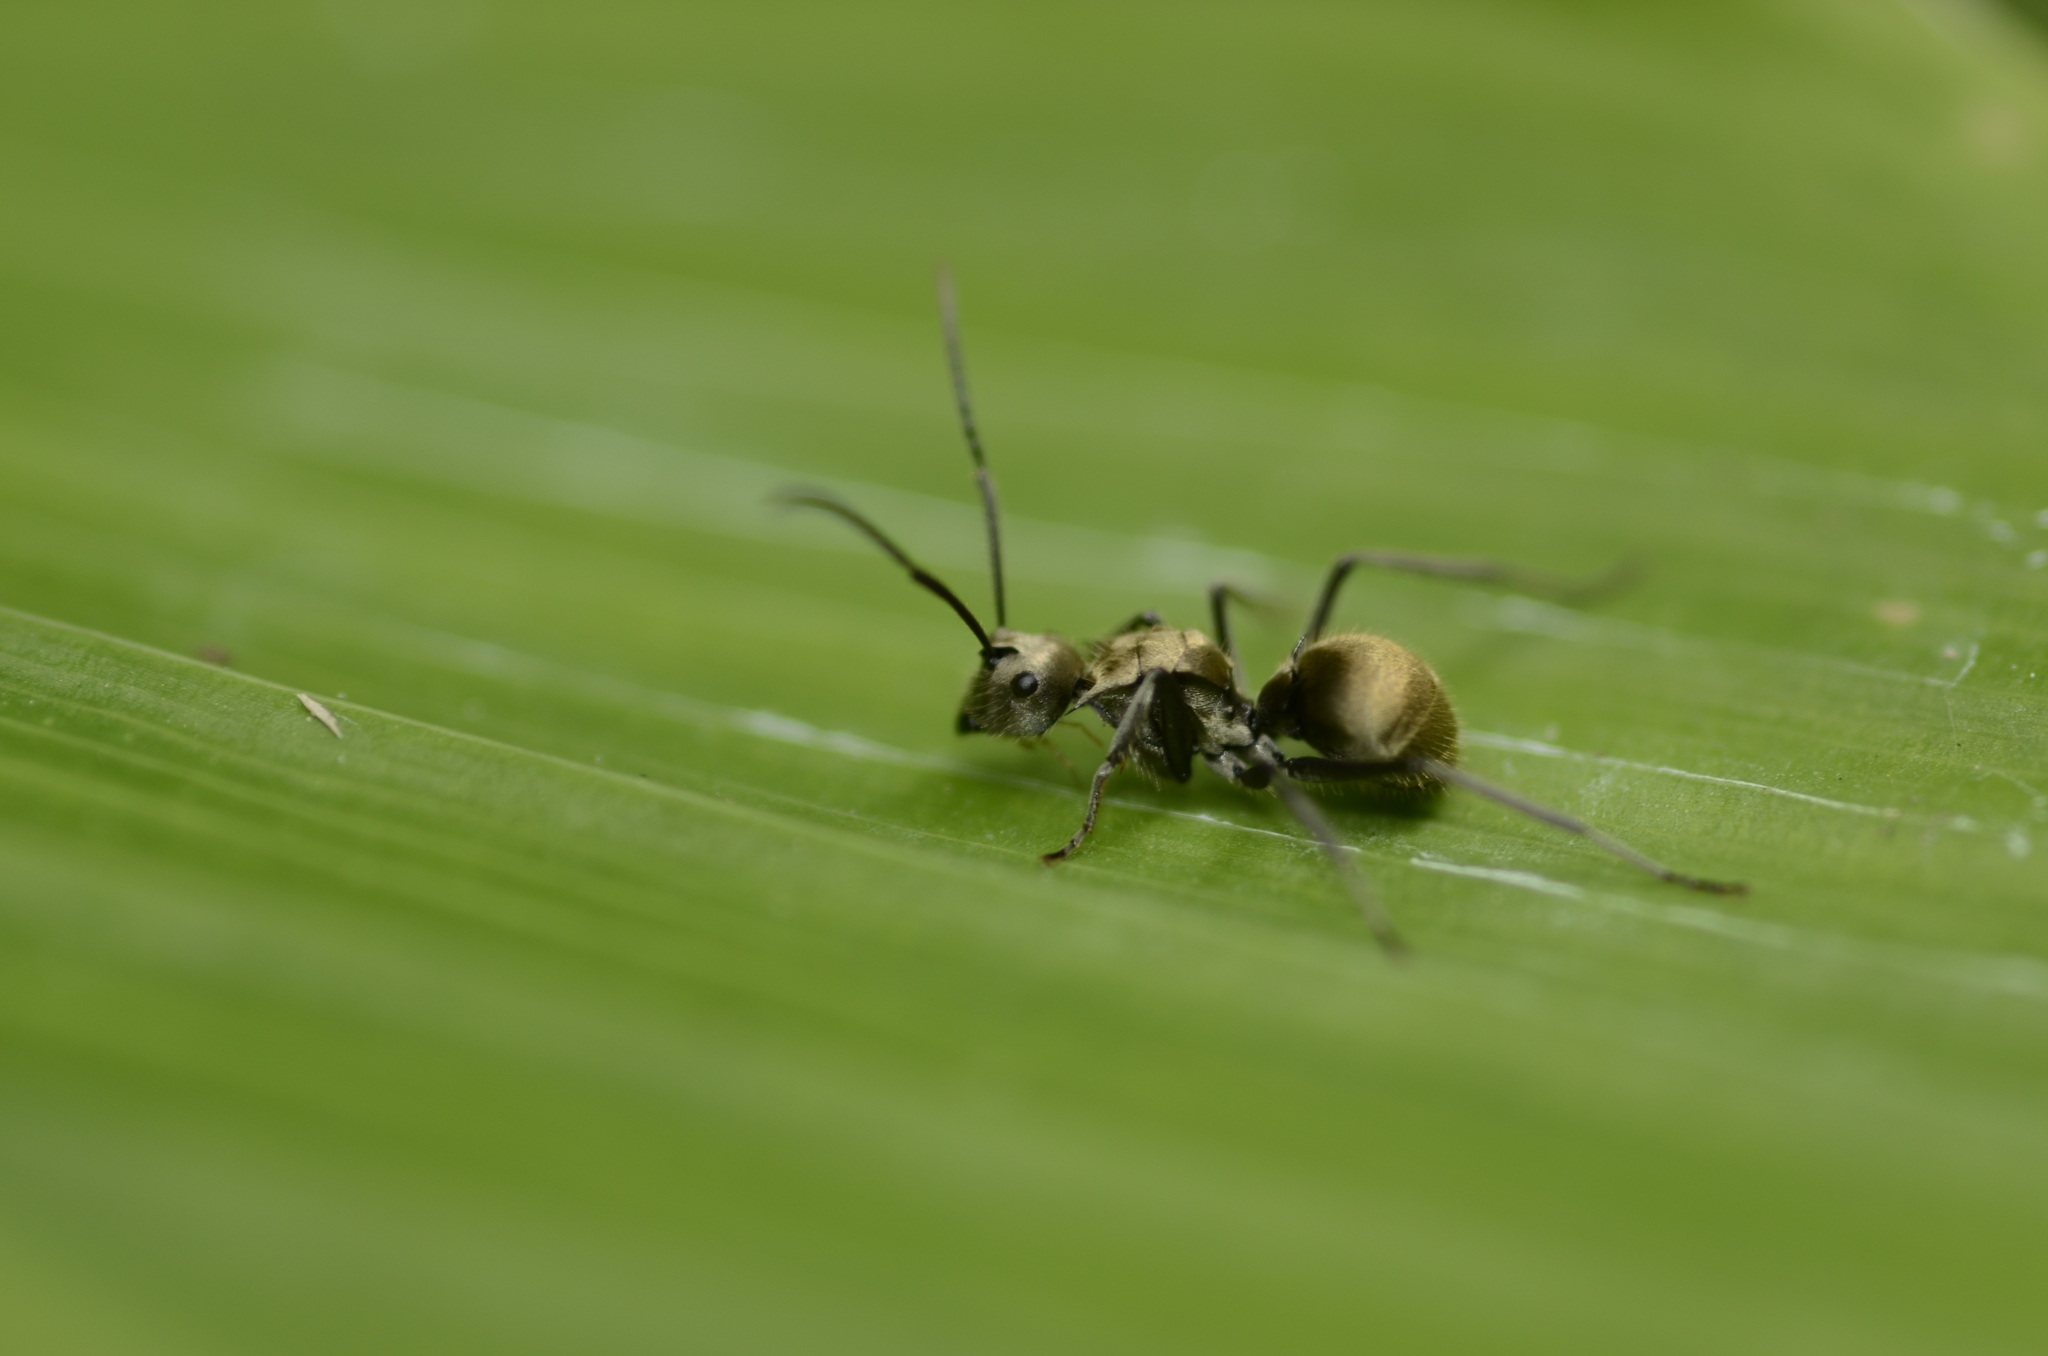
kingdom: Animalia
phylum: Arthropoda
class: Insecta
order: Hymenoptera
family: Formicidae
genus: Polyrhachis
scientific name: Polyrhachis illaudata
